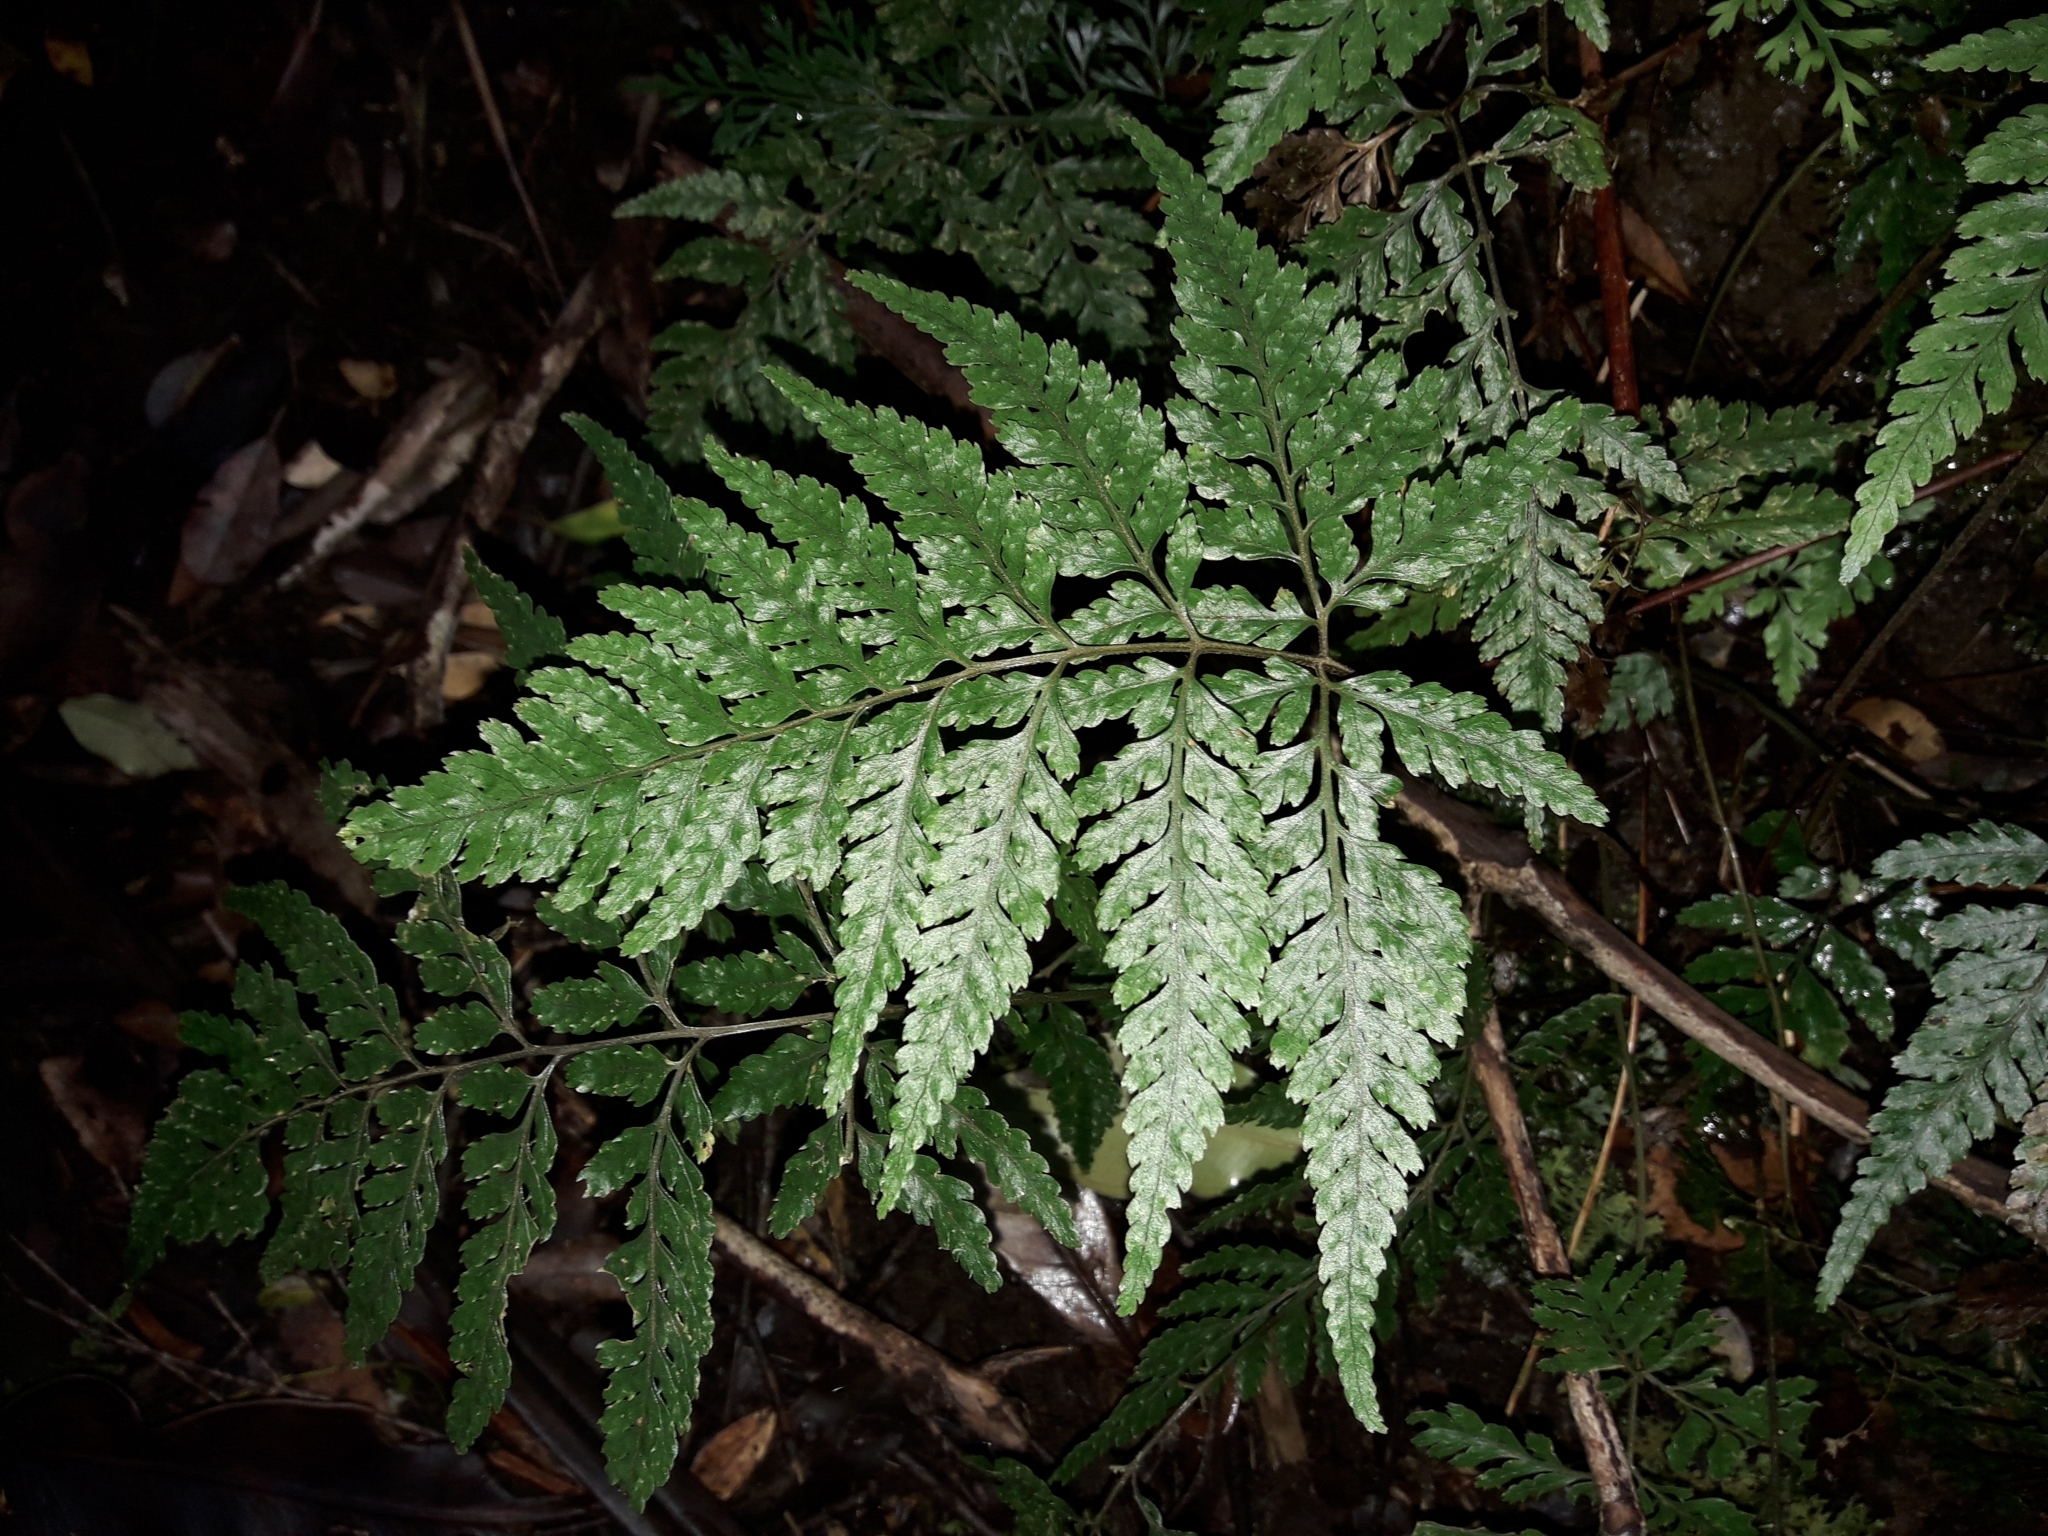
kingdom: Plantae
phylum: Tracheophyta
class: Polypodiopsida
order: Polypodiales
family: Dryopteridaceae
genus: Parapolystichum
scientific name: Parapolystichum smithianum
